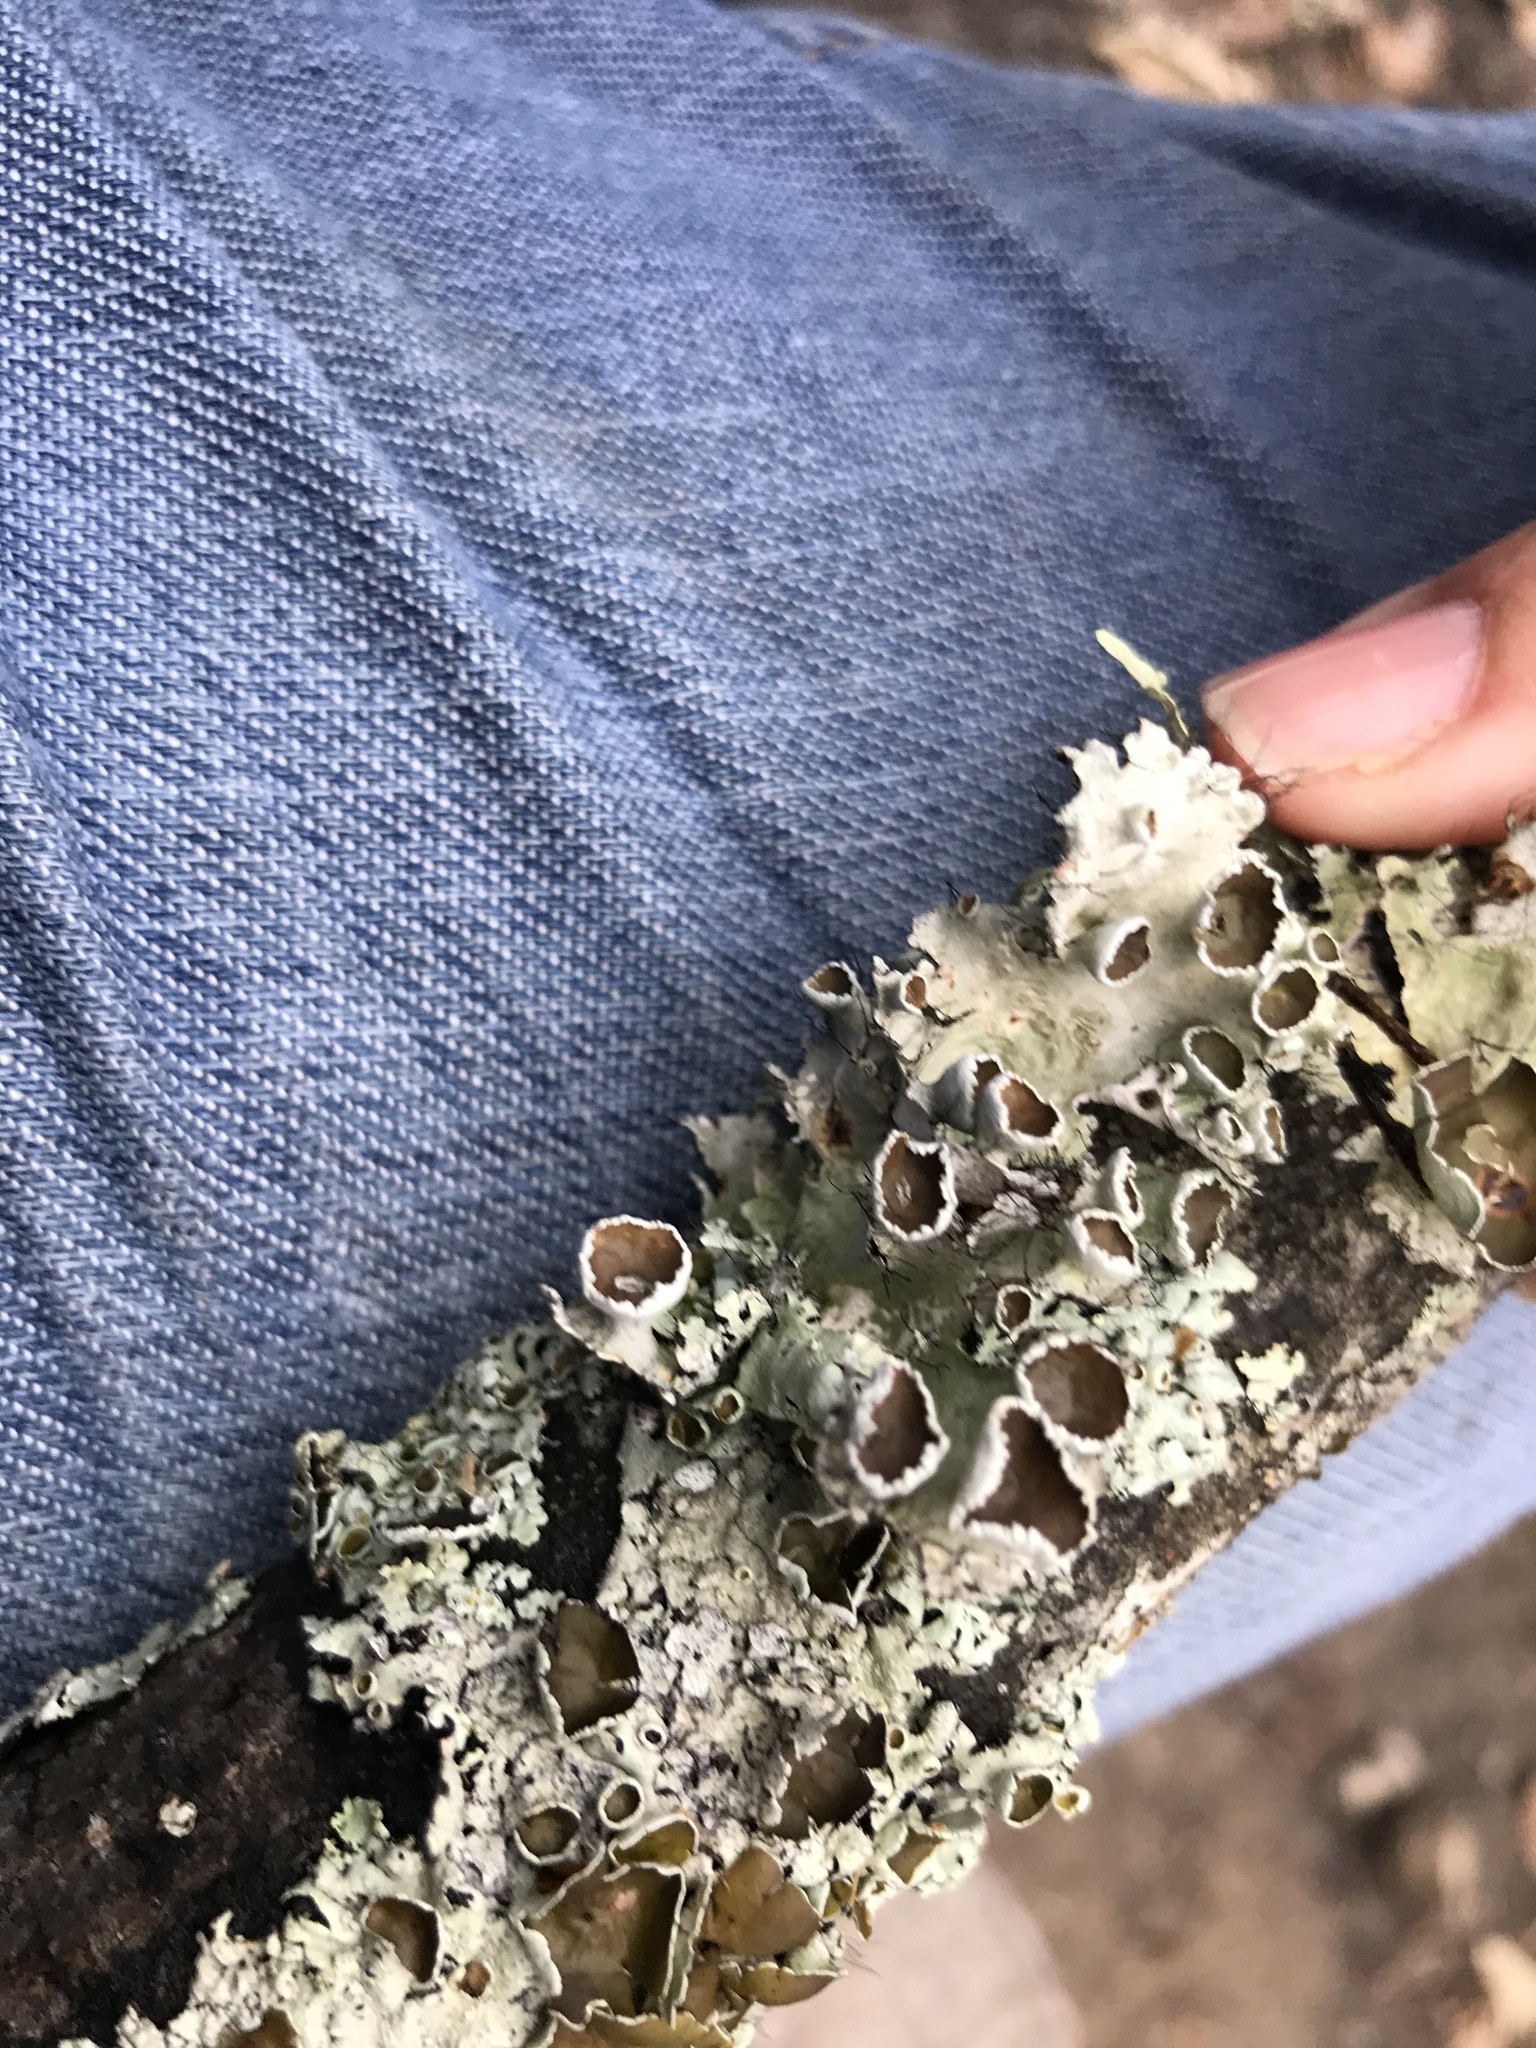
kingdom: Fungi
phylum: Ascomycota
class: Lecanoromycetes
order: Lecanorales
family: Parmeliaceae
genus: Parmotrema
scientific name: Parmotrema perforatum
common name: Perforated ruffle lichen
